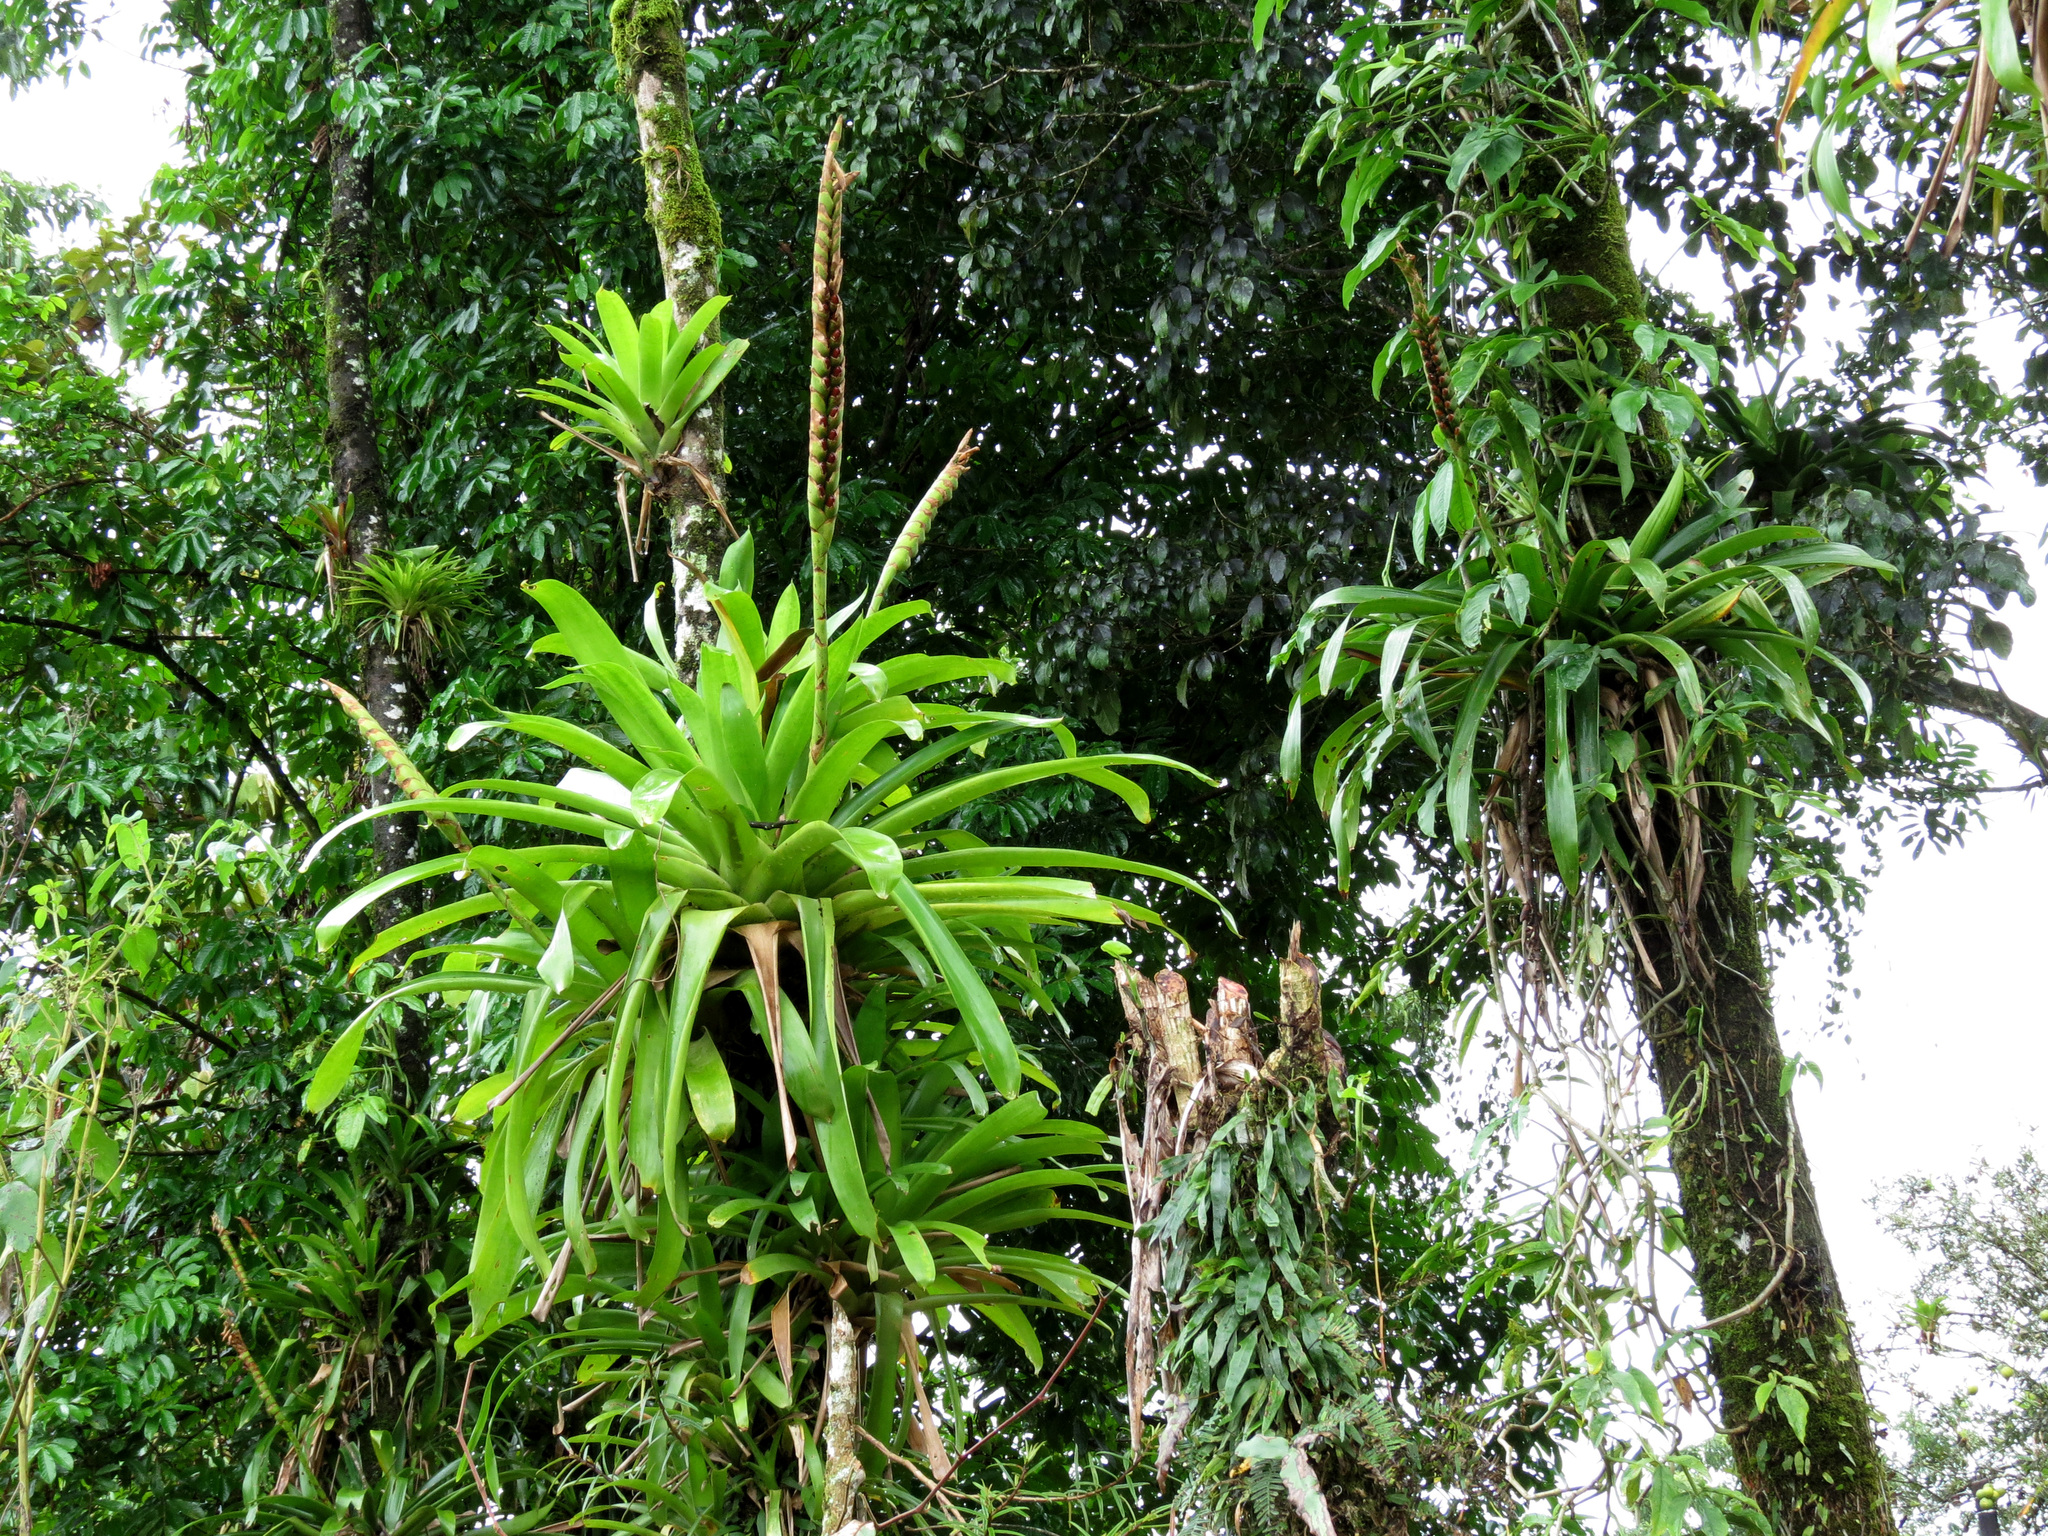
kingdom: Plantae
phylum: Tracheophyta
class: Liliopsida
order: Poales
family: Bromeliaceae
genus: Werauhia
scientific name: Werauhia gladioliflora
